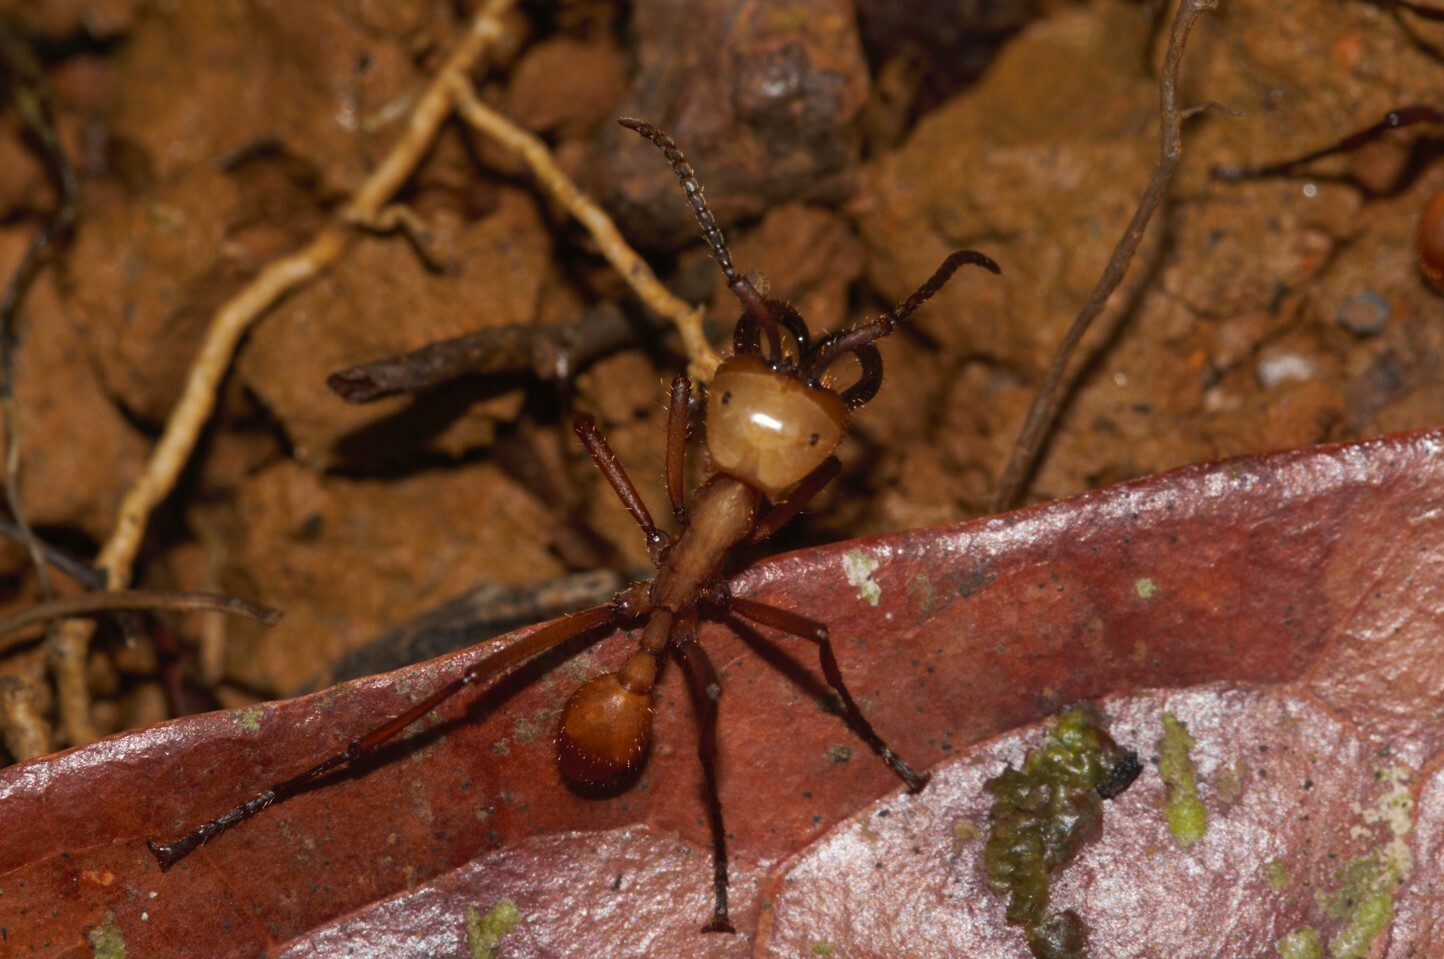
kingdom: Animalia
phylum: Arthropoda
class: Insecta
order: Hymenoptera
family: Formicidae
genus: Eciton
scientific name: Eciton drepanophorum
